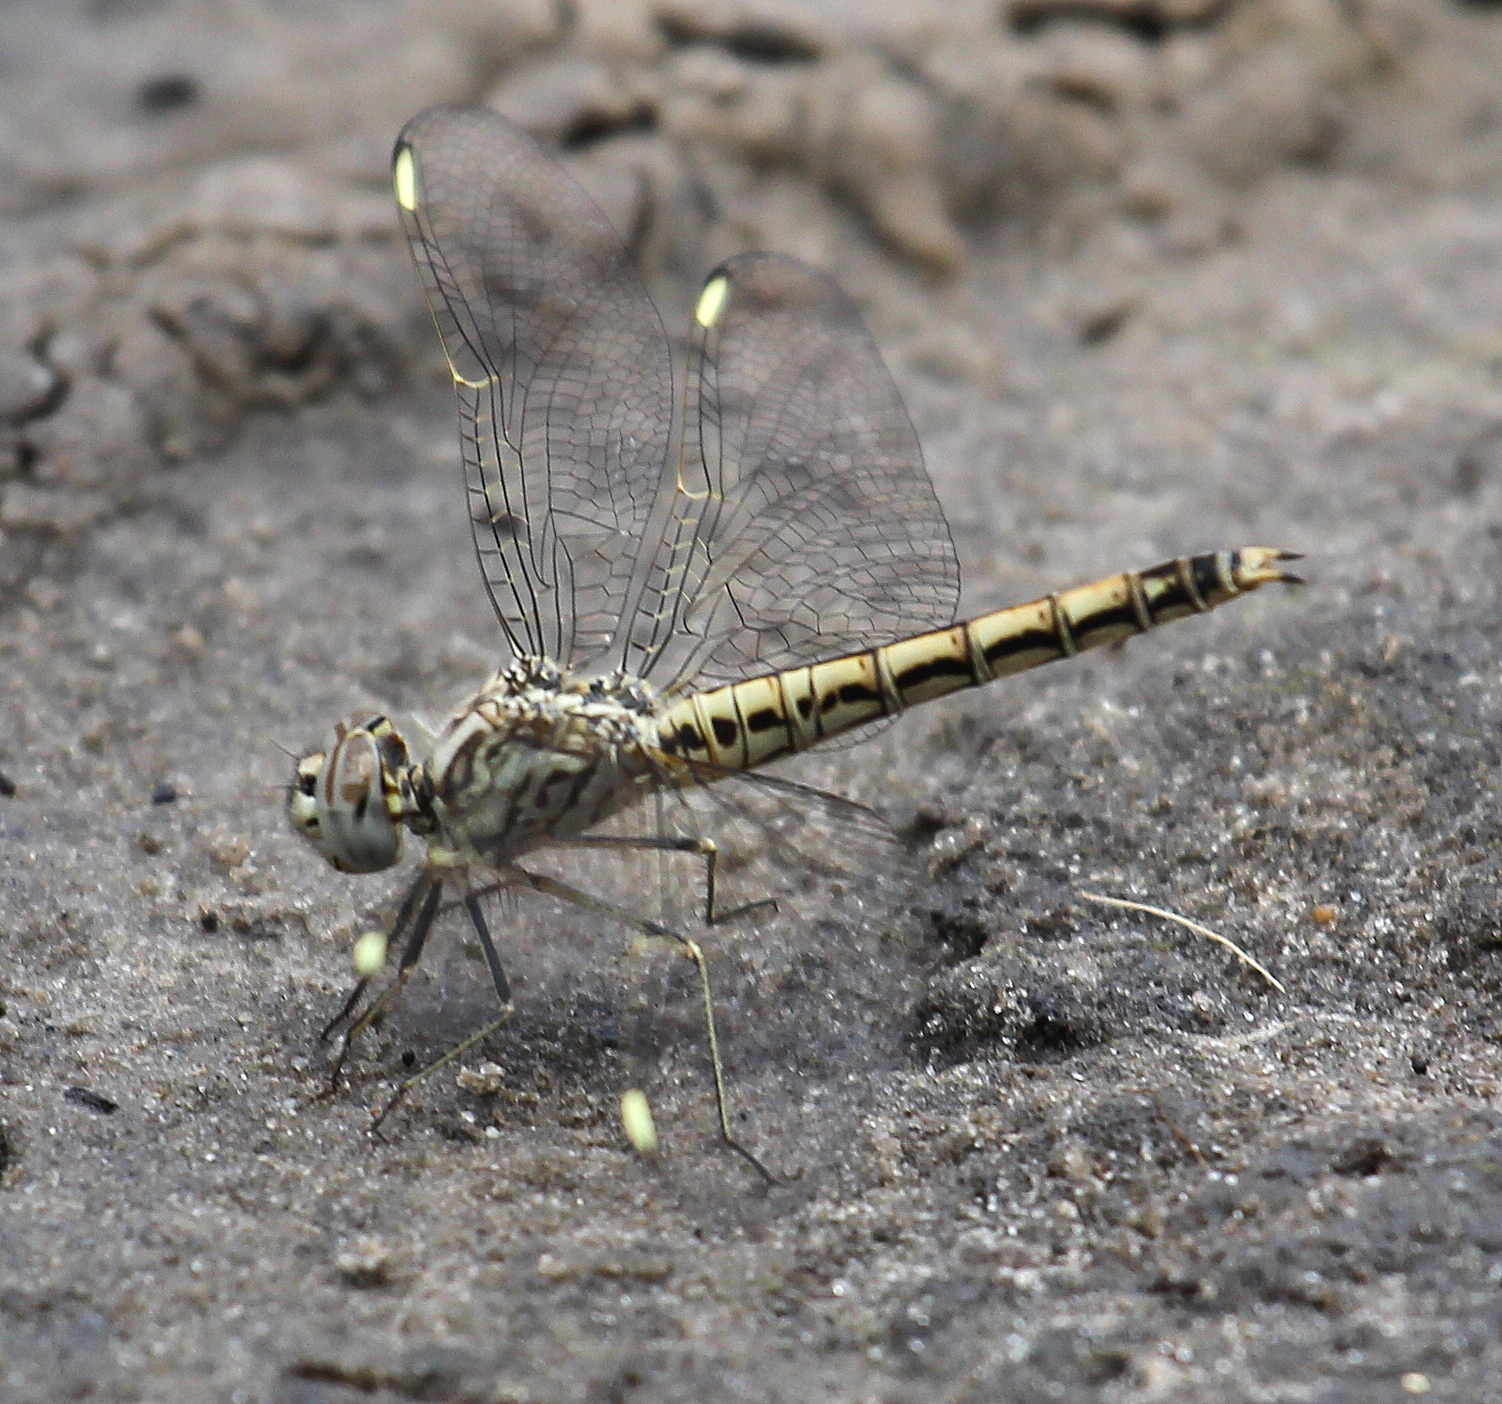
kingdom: Animalia
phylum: Arthropoda
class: Insecta
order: Odonata
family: Libellulidae
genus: Brachythemis
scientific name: Brachythemis leucosticta
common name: Banded groundling
